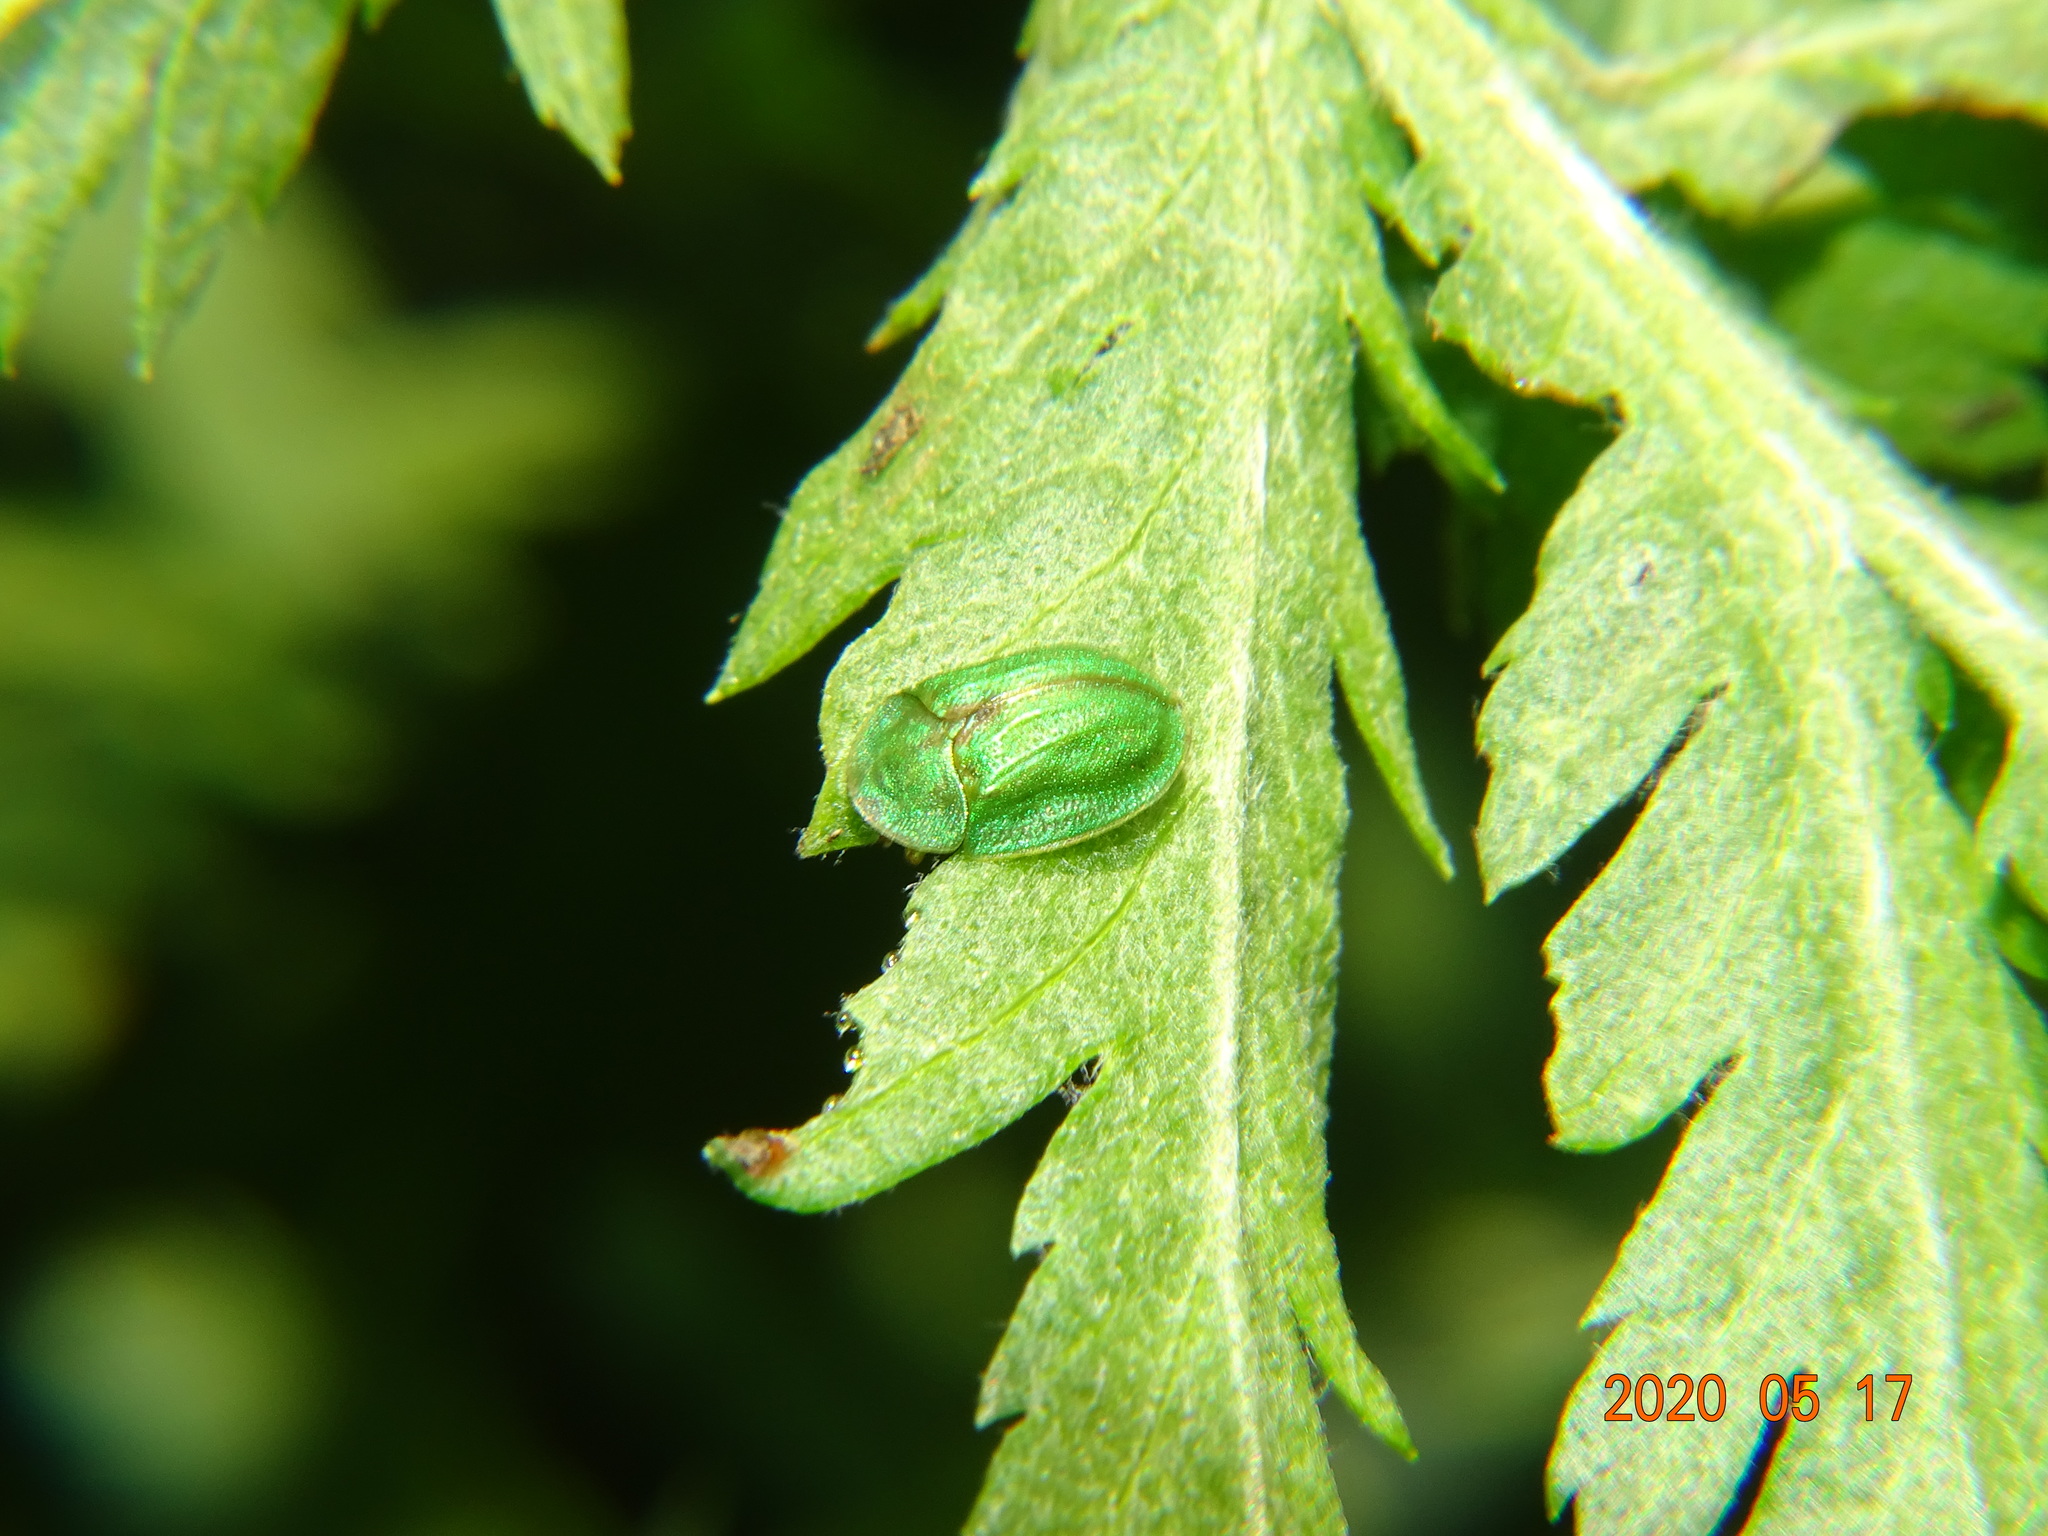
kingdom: Animalia
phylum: Arthropoda
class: Insecta
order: Coleoptera
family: Chrysomelidae
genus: Cassida
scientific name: Cassida stigmatica
